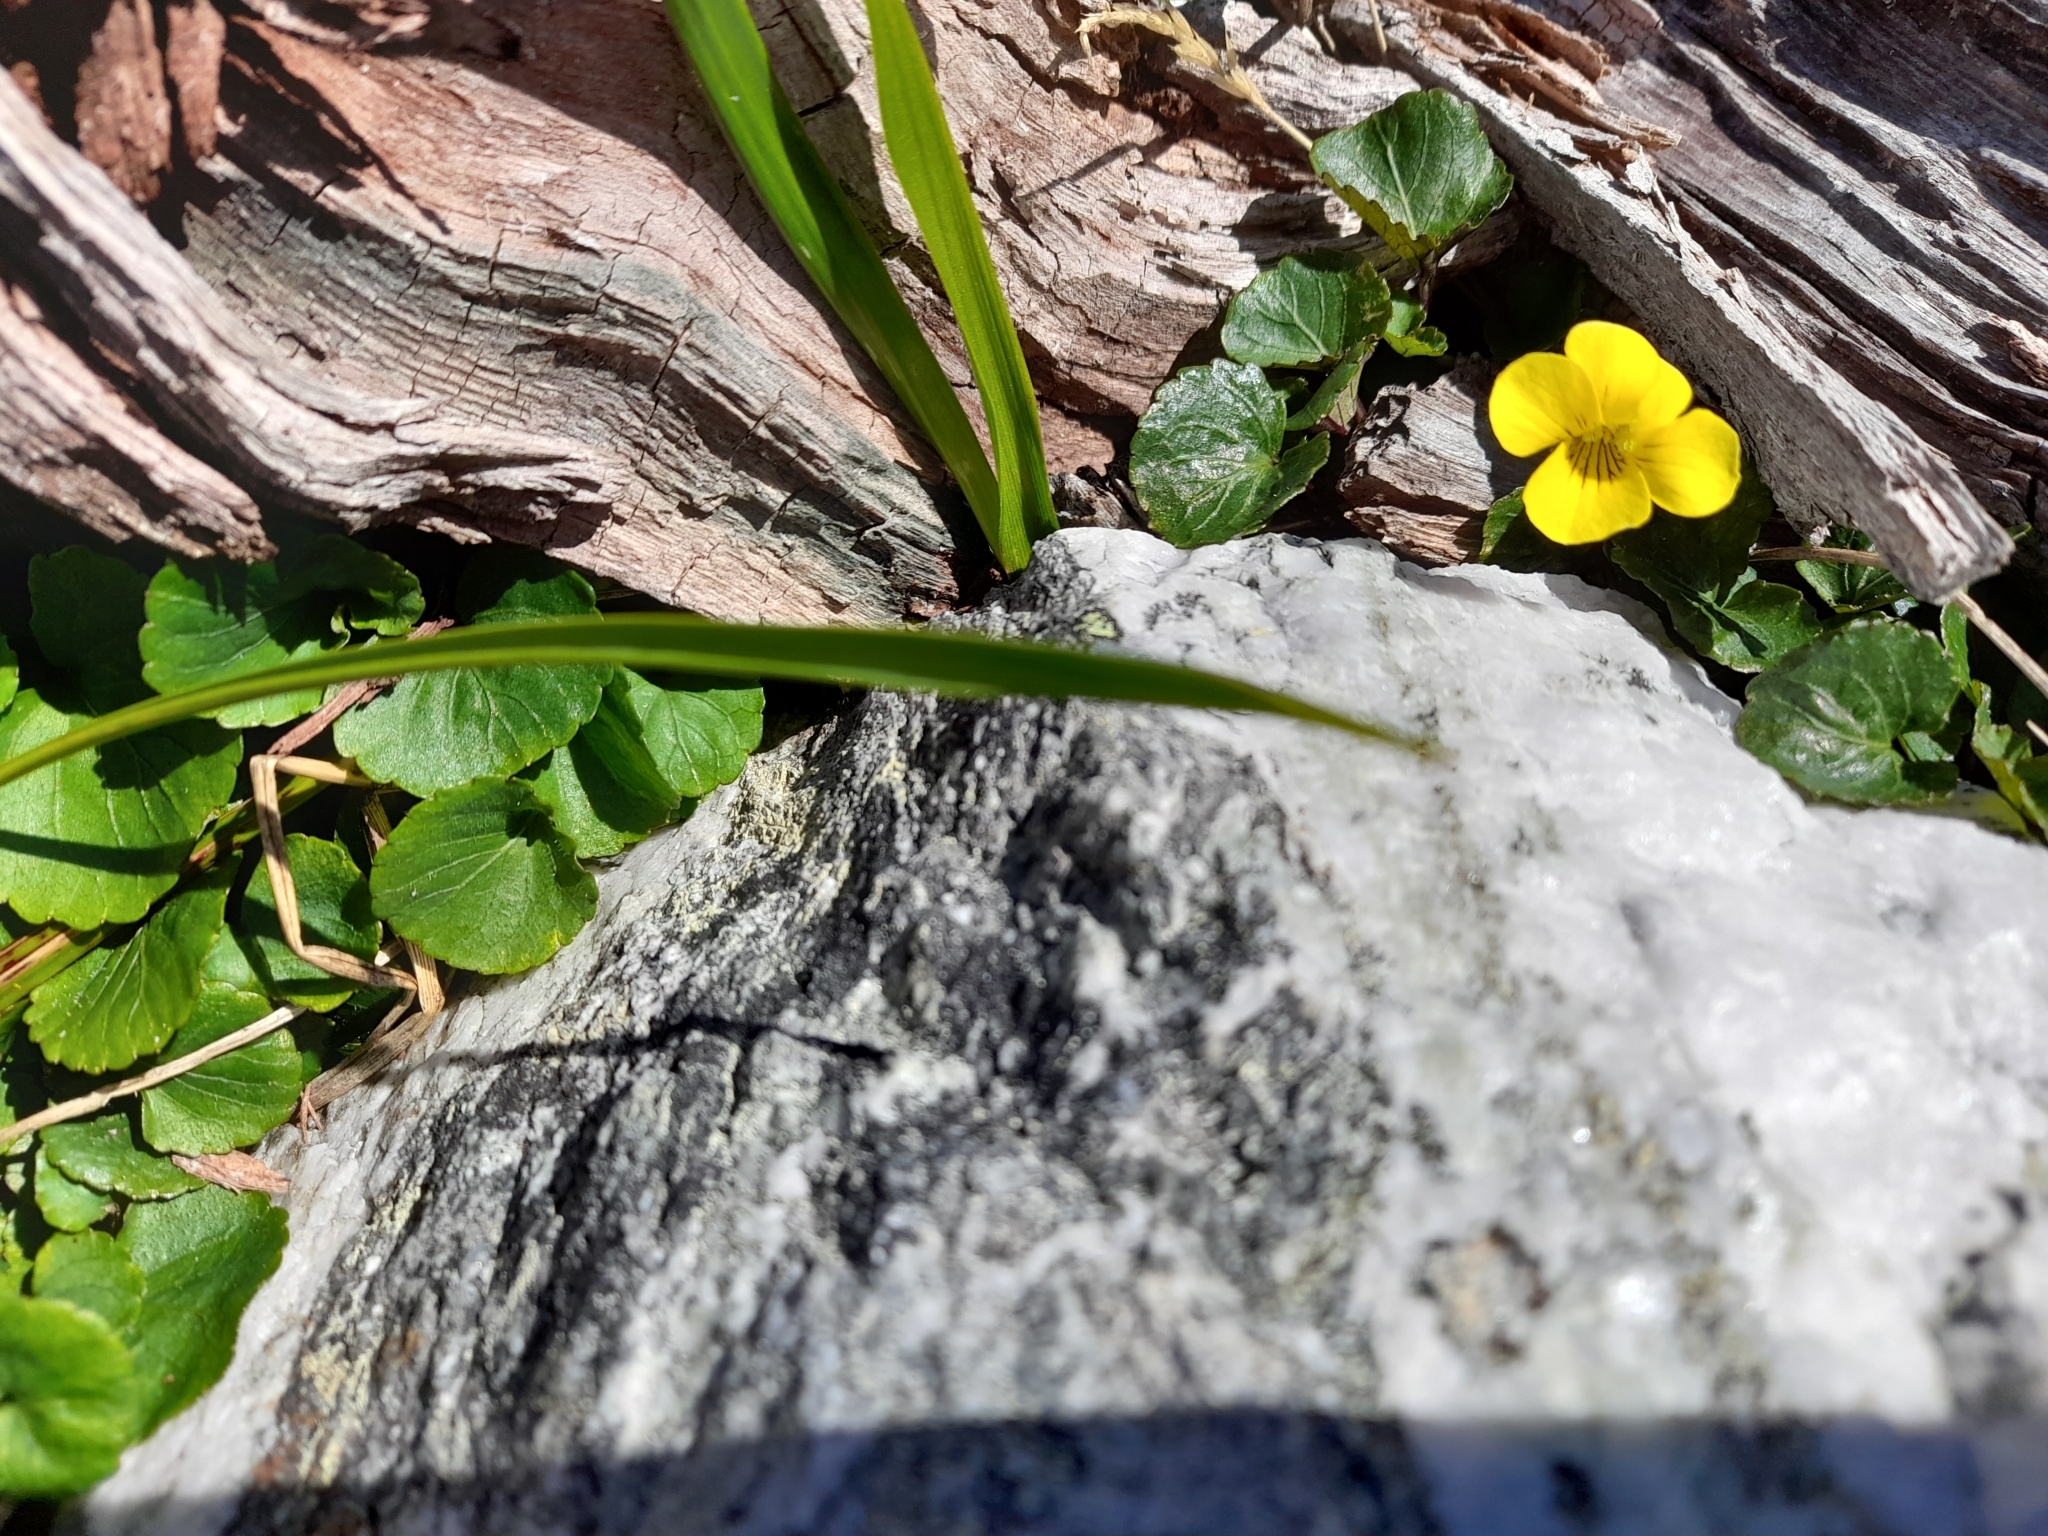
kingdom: Plantae
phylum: Tracheophyta
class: Magnoliopsida
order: Malpighiales
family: Violaceae
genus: Viola
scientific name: Viola magellanica
